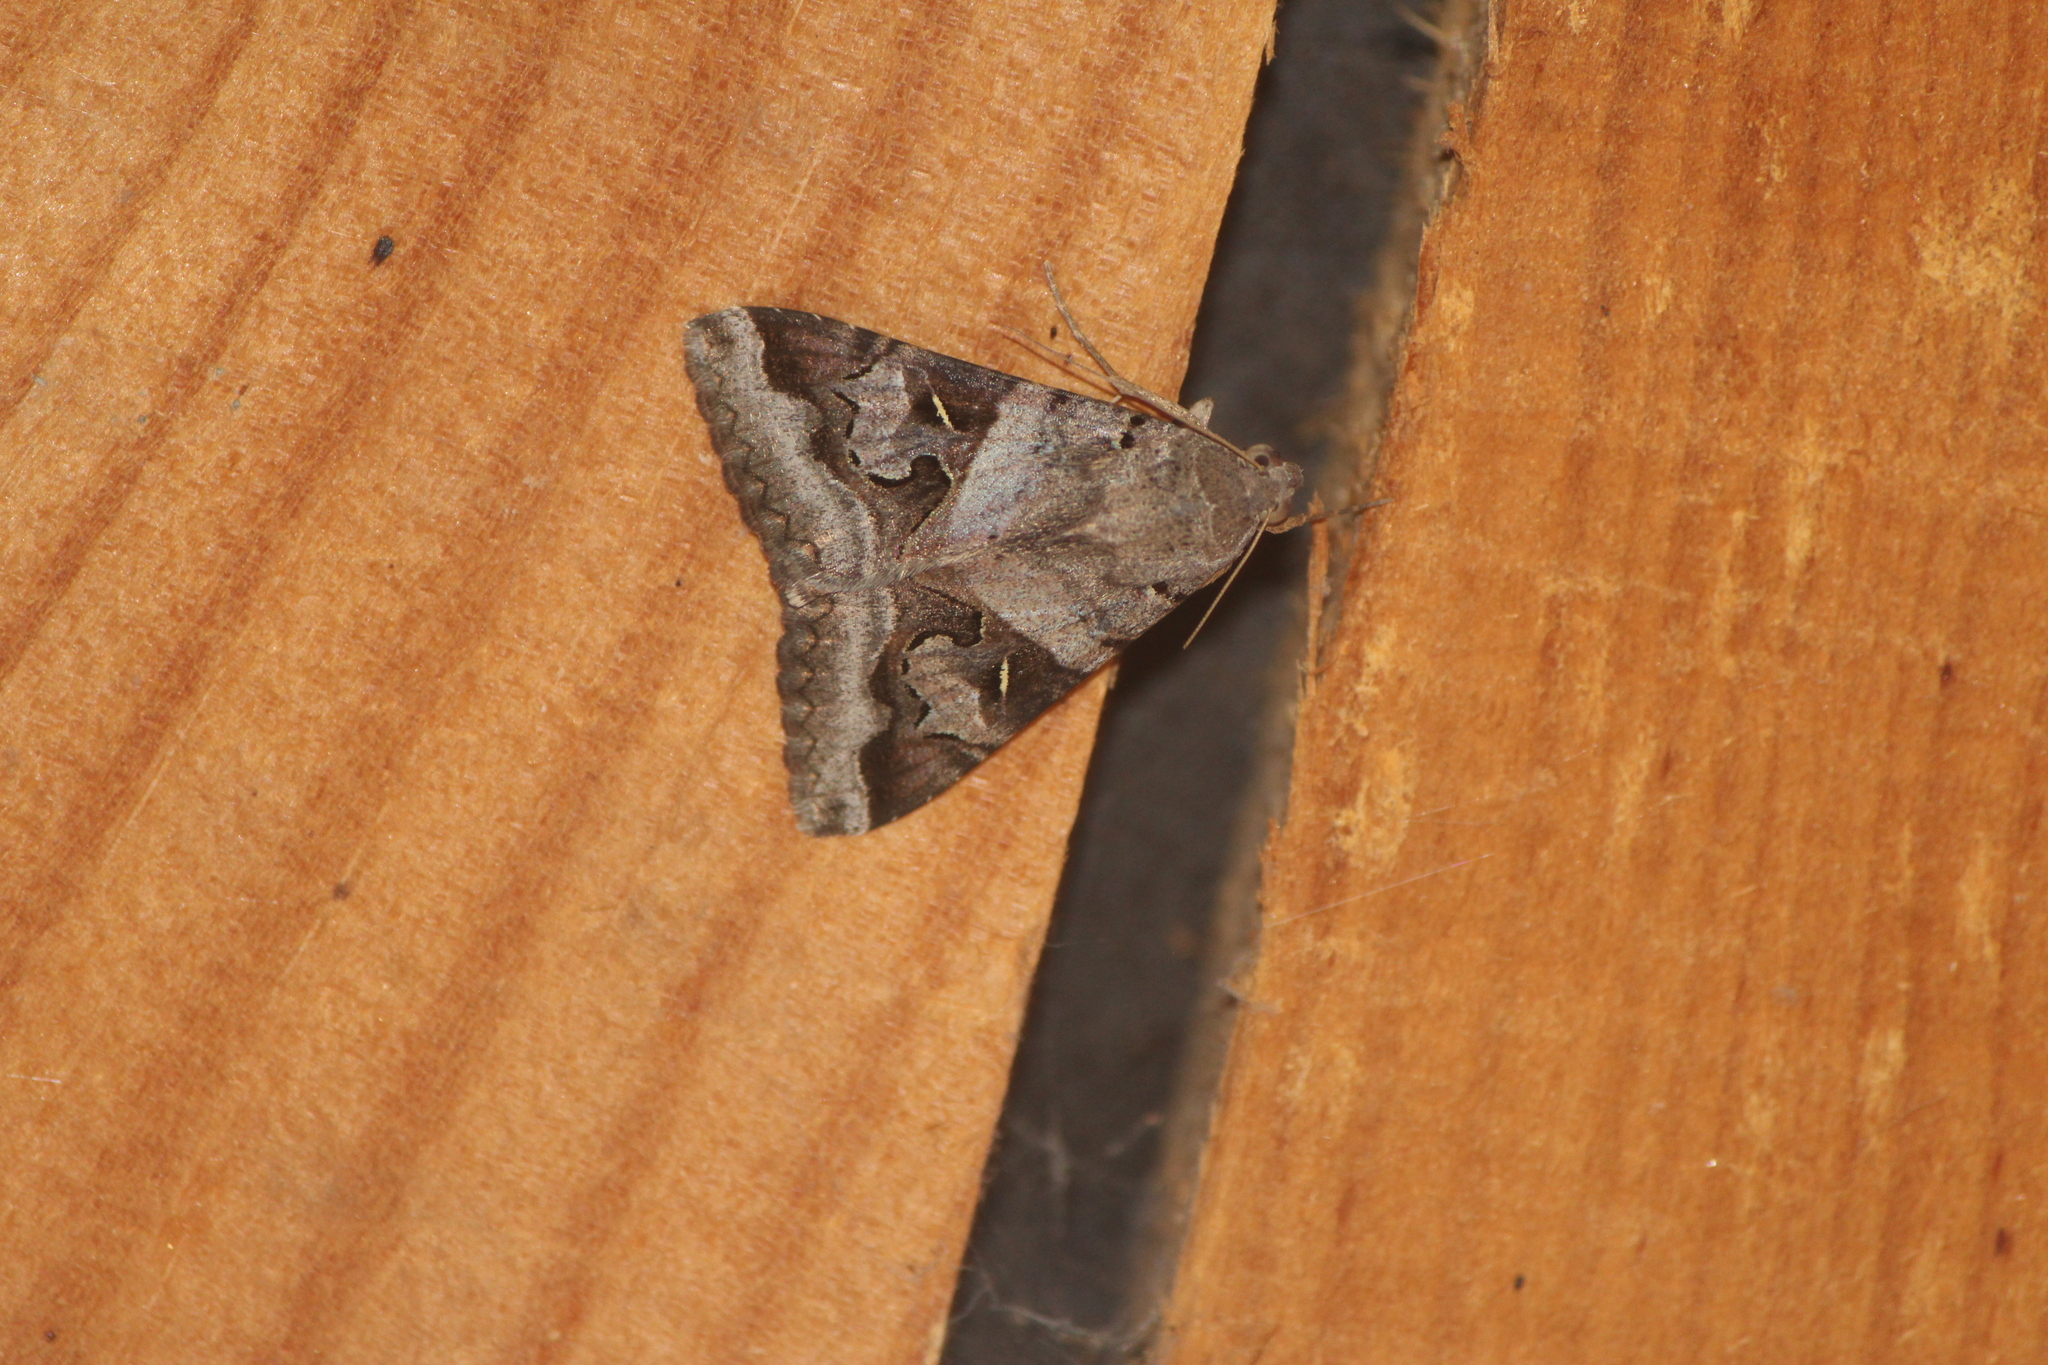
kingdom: Animalia
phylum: Arthropoda
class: Insecta
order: Lepidoptera
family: Erebidae
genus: Melipotis
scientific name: Melipotis indomita
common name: Moth
